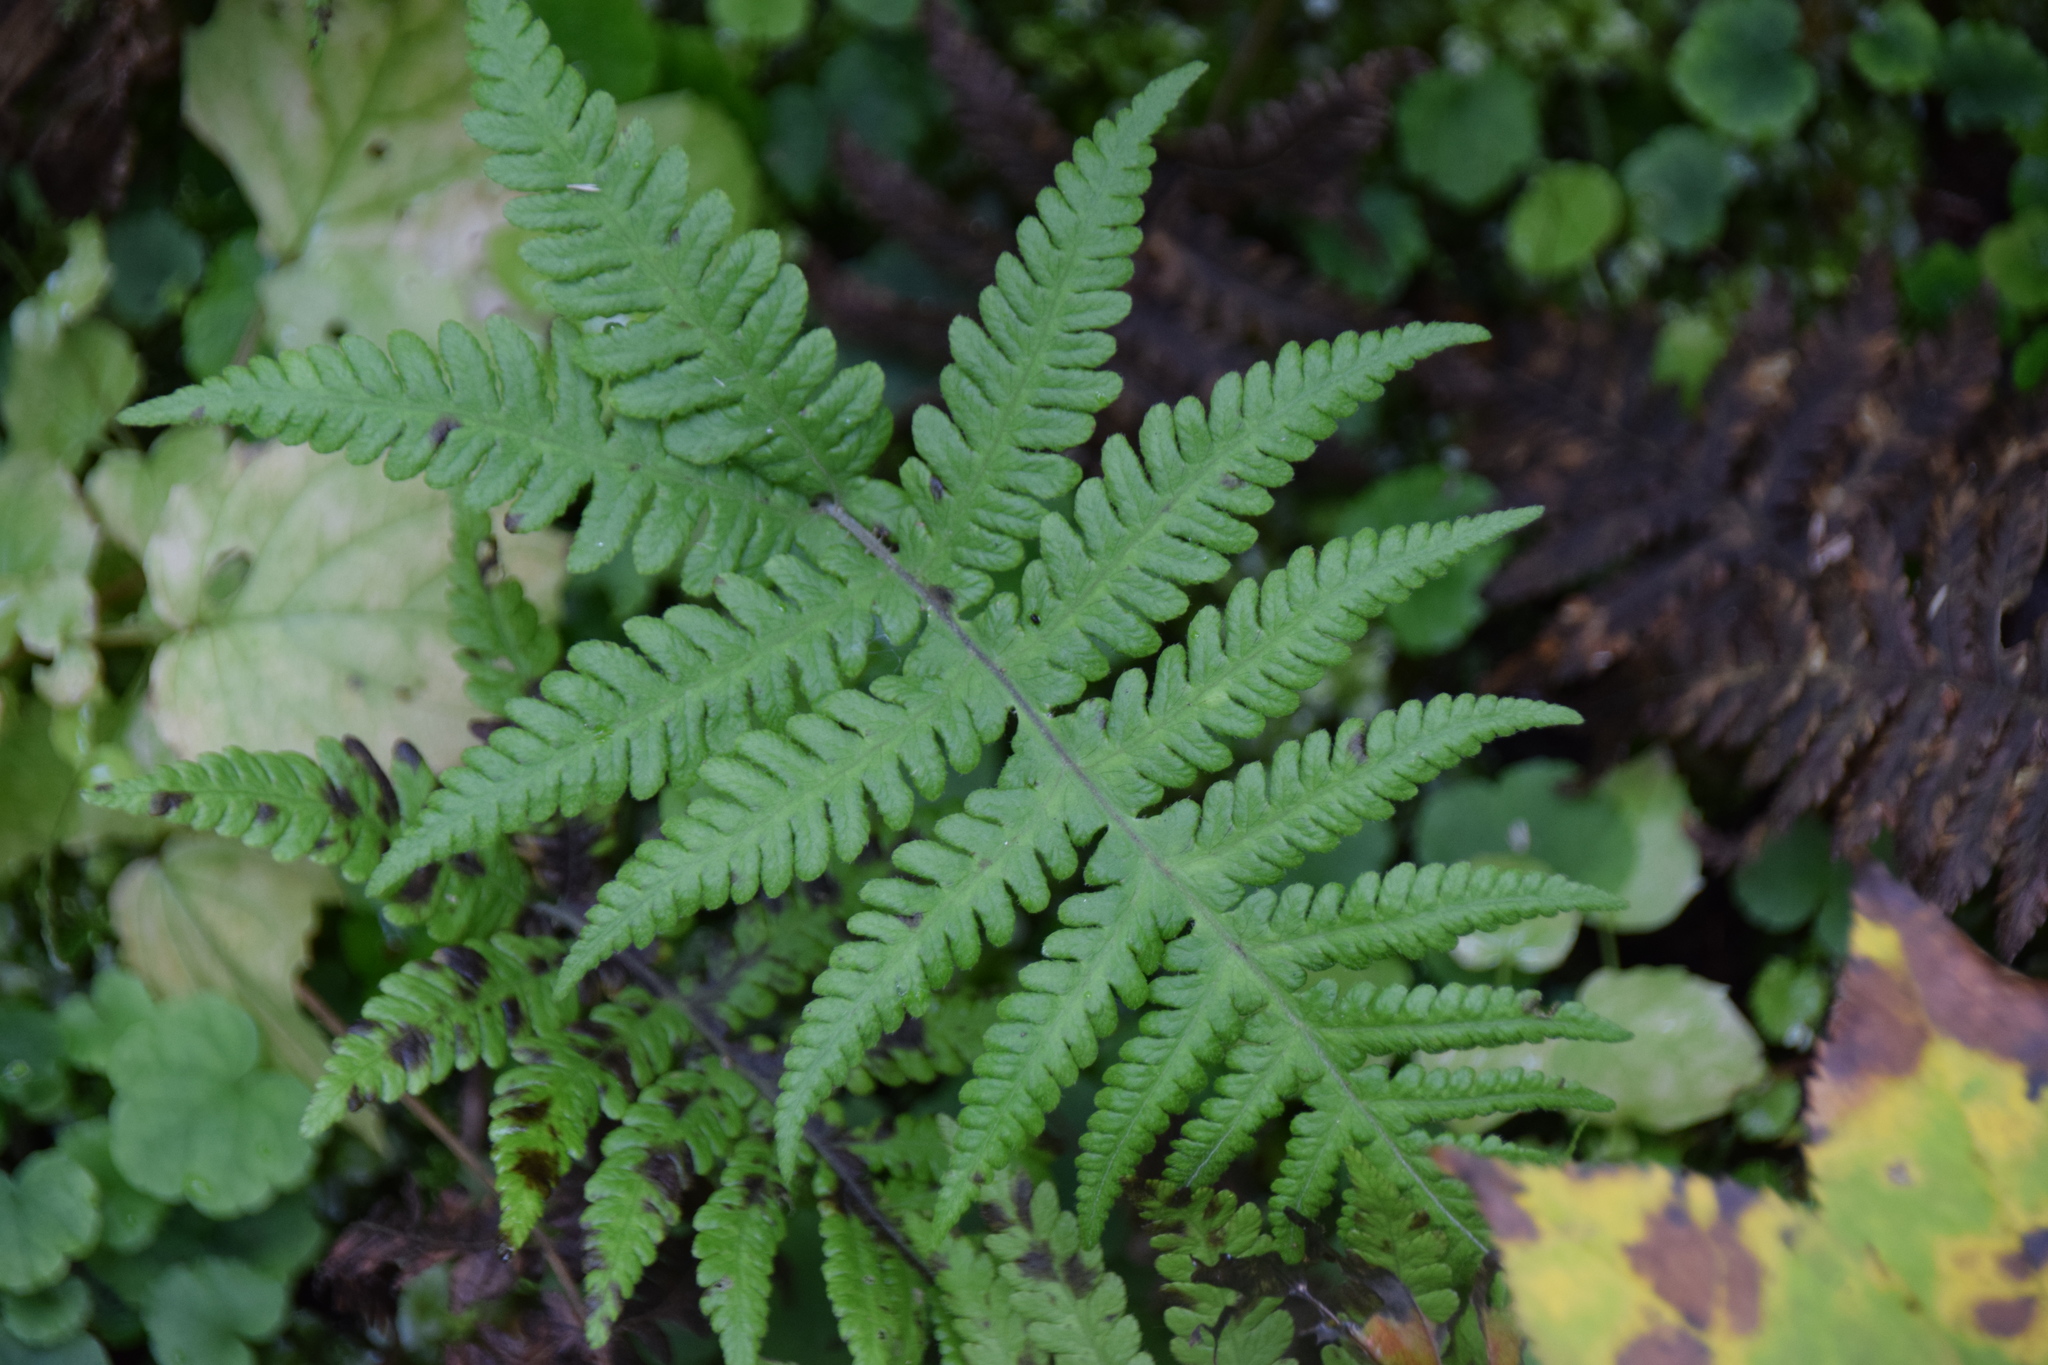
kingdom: Plantae
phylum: Tracheophyta
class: Polypodiopsida
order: Polypodiales
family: Thelypteridaceae
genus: Phegopteris
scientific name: Phegopteris connectilis
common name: Beech fern
